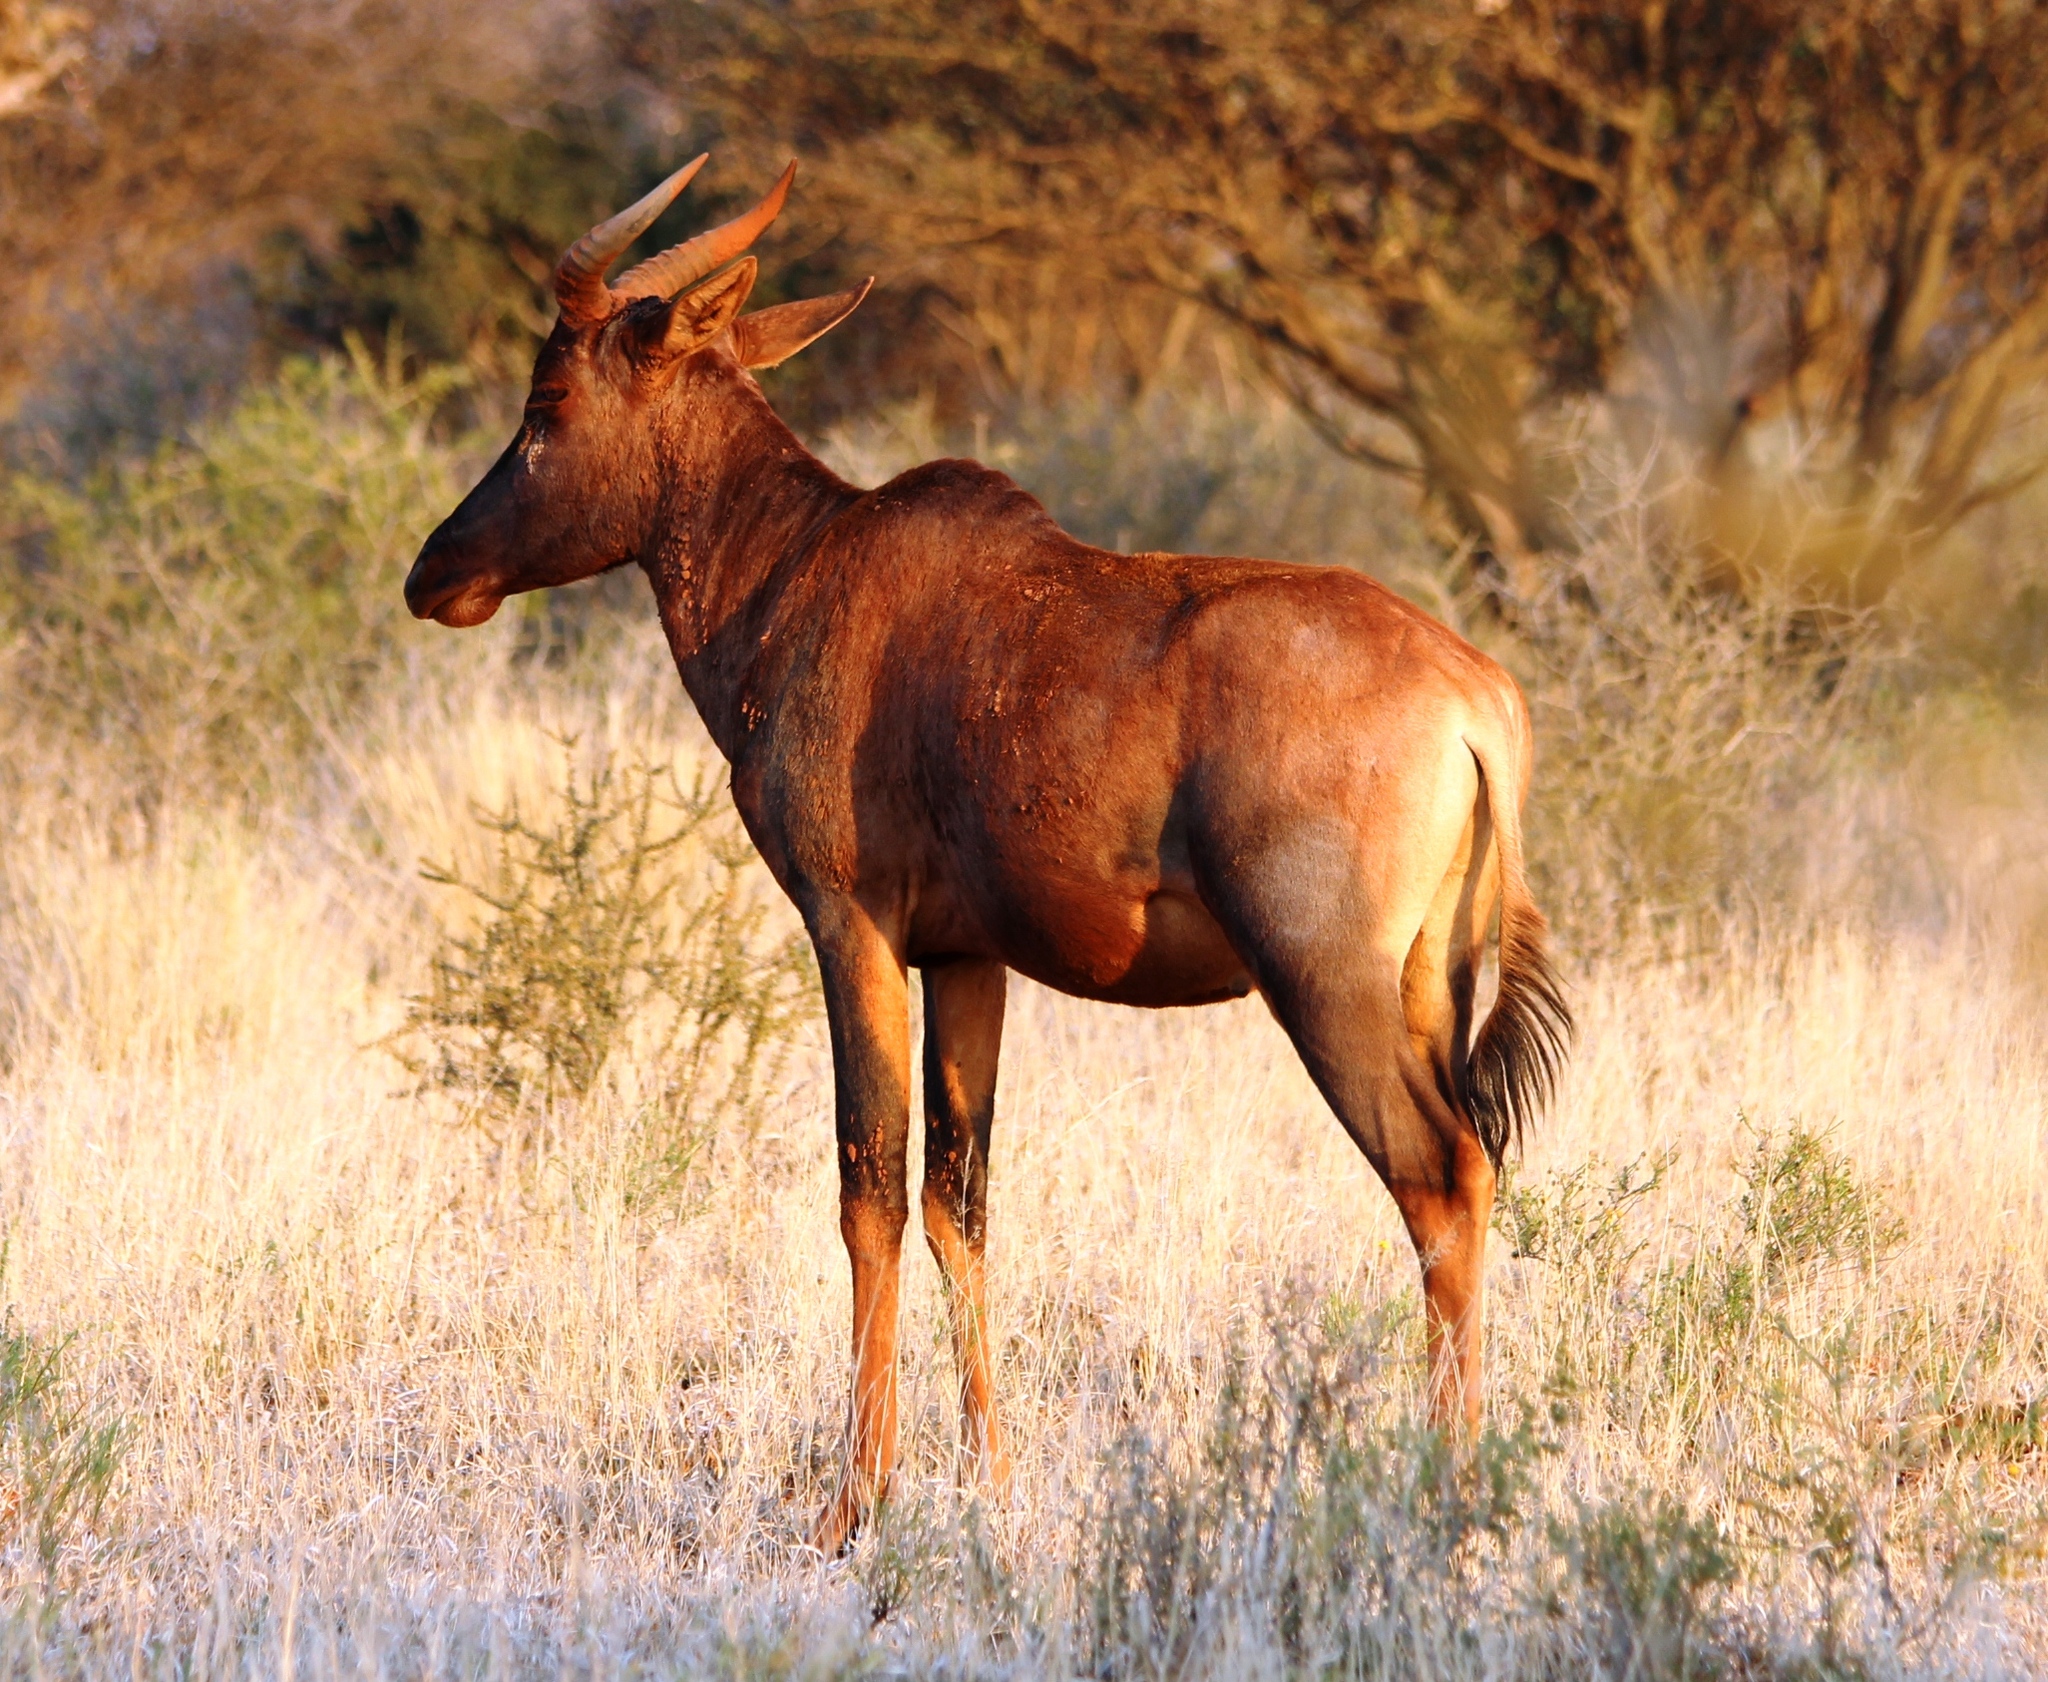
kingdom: Animalia
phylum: Chordata
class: Mammalia
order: Artiodactyla
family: Bovidae
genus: Damaliscus
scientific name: Damaliscus lunatus
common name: Common tsessebe
